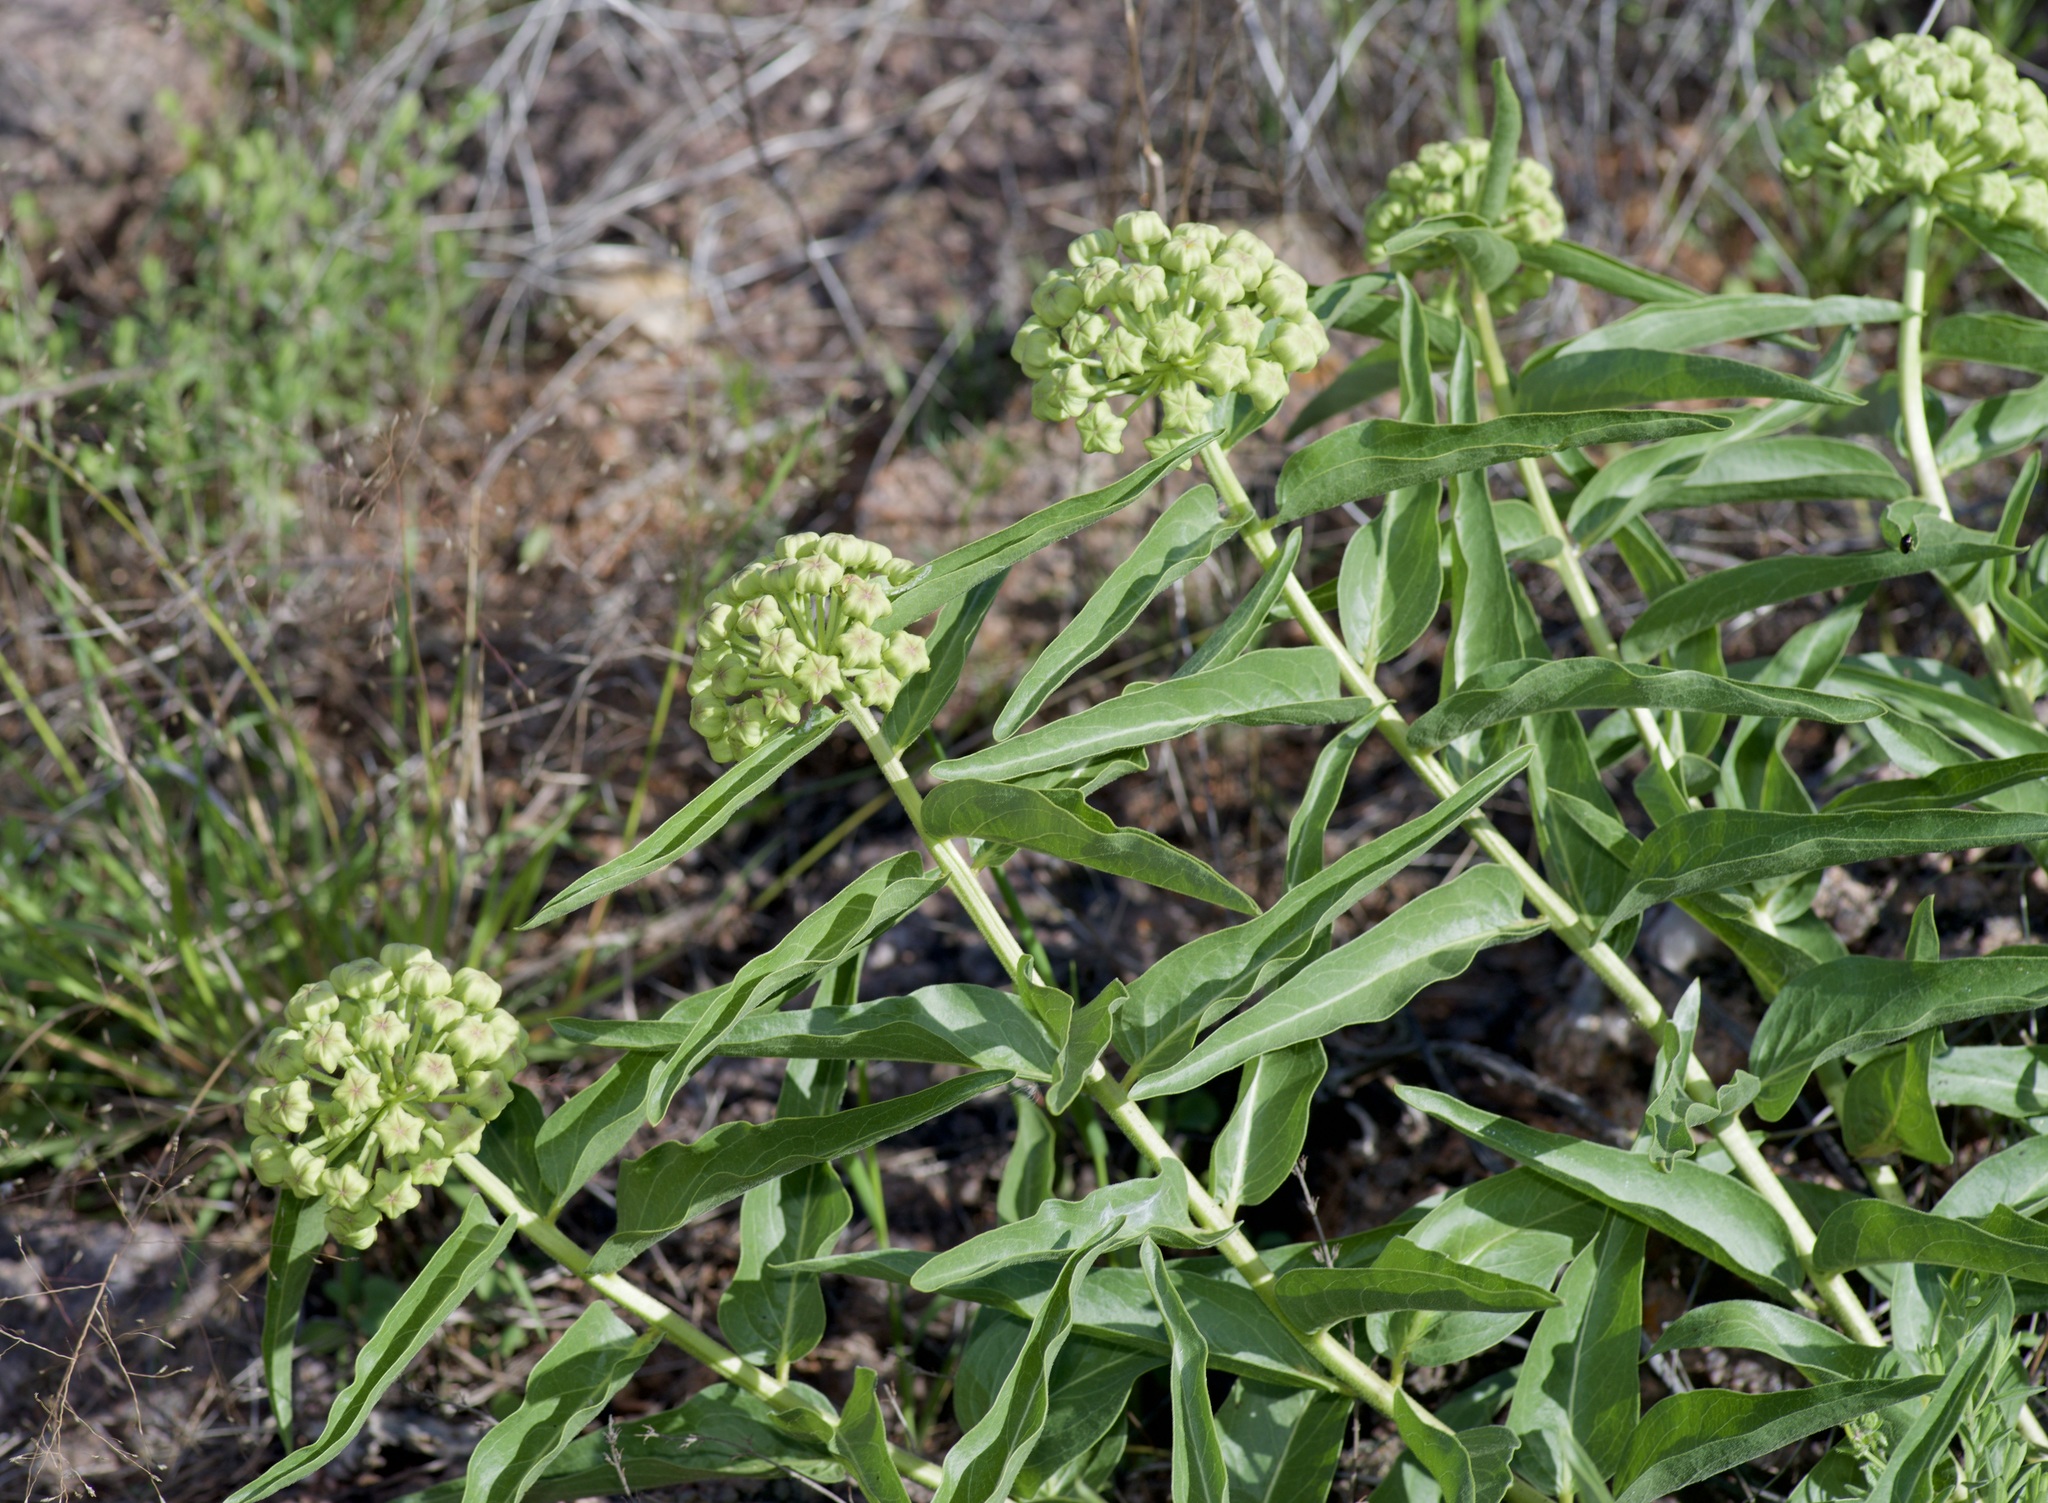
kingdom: Plantae
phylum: Tracheophyta
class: Magnoliopsida
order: Gentianales
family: Apocynaceae
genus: Asclepias
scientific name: Asclepias asperula
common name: Antelope horns
